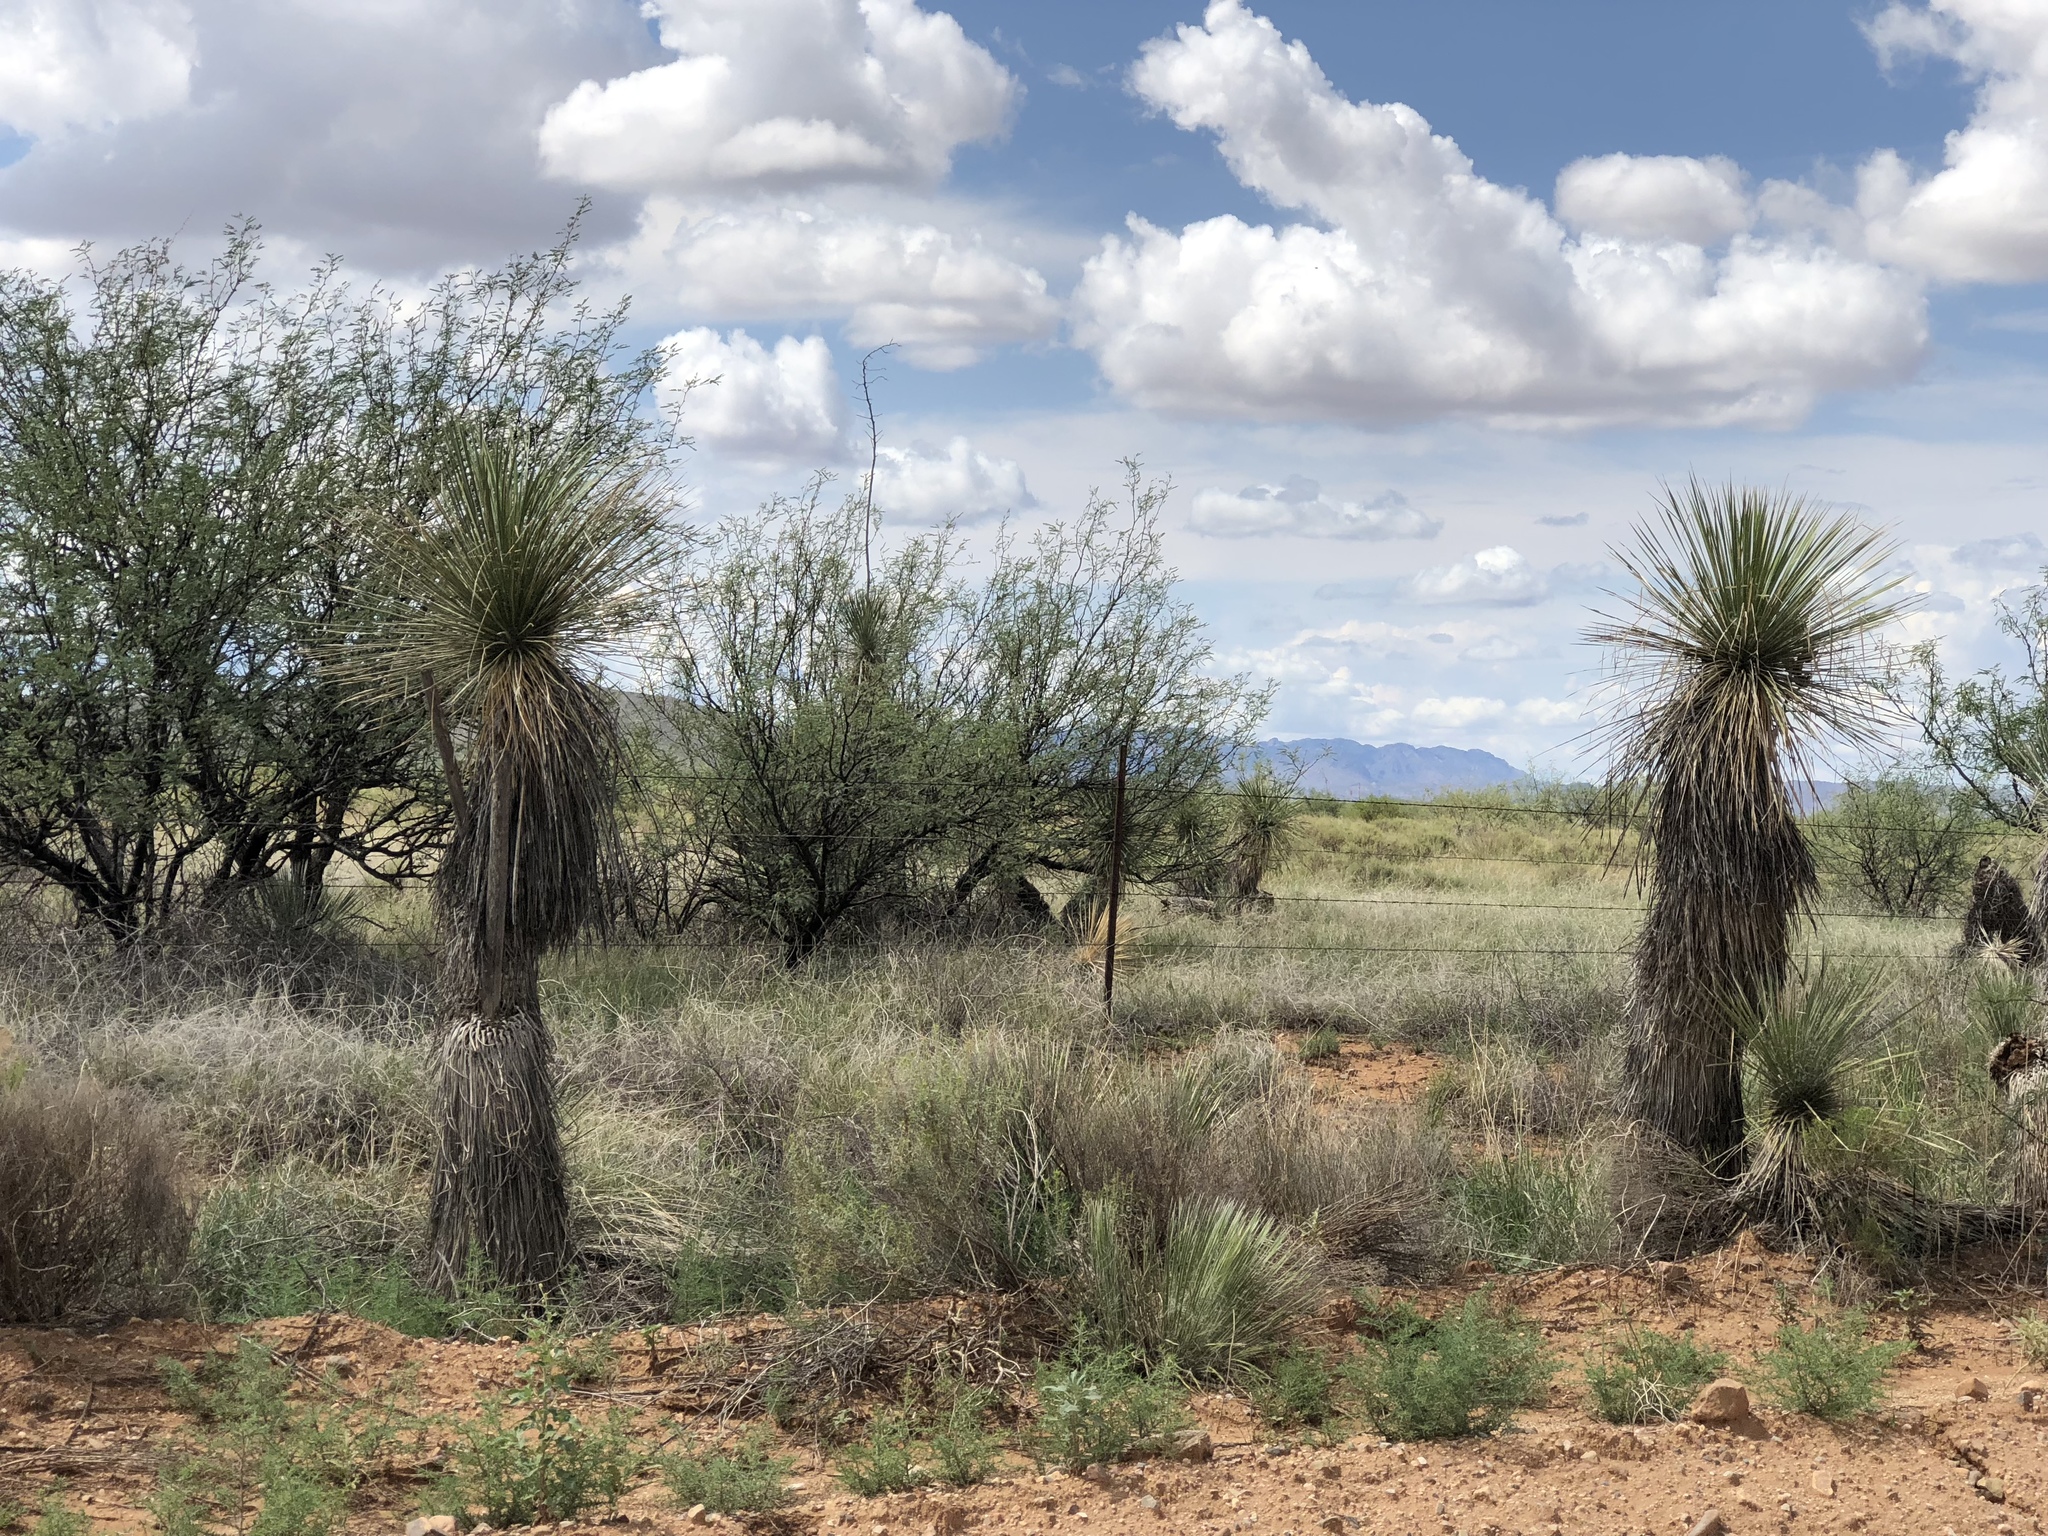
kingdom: Plantae
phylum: Tracheophyta
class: Liliopsida
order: Asparagales
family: Asparagaceae
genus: Yucca
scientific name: Yucca elata
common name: Palmella
